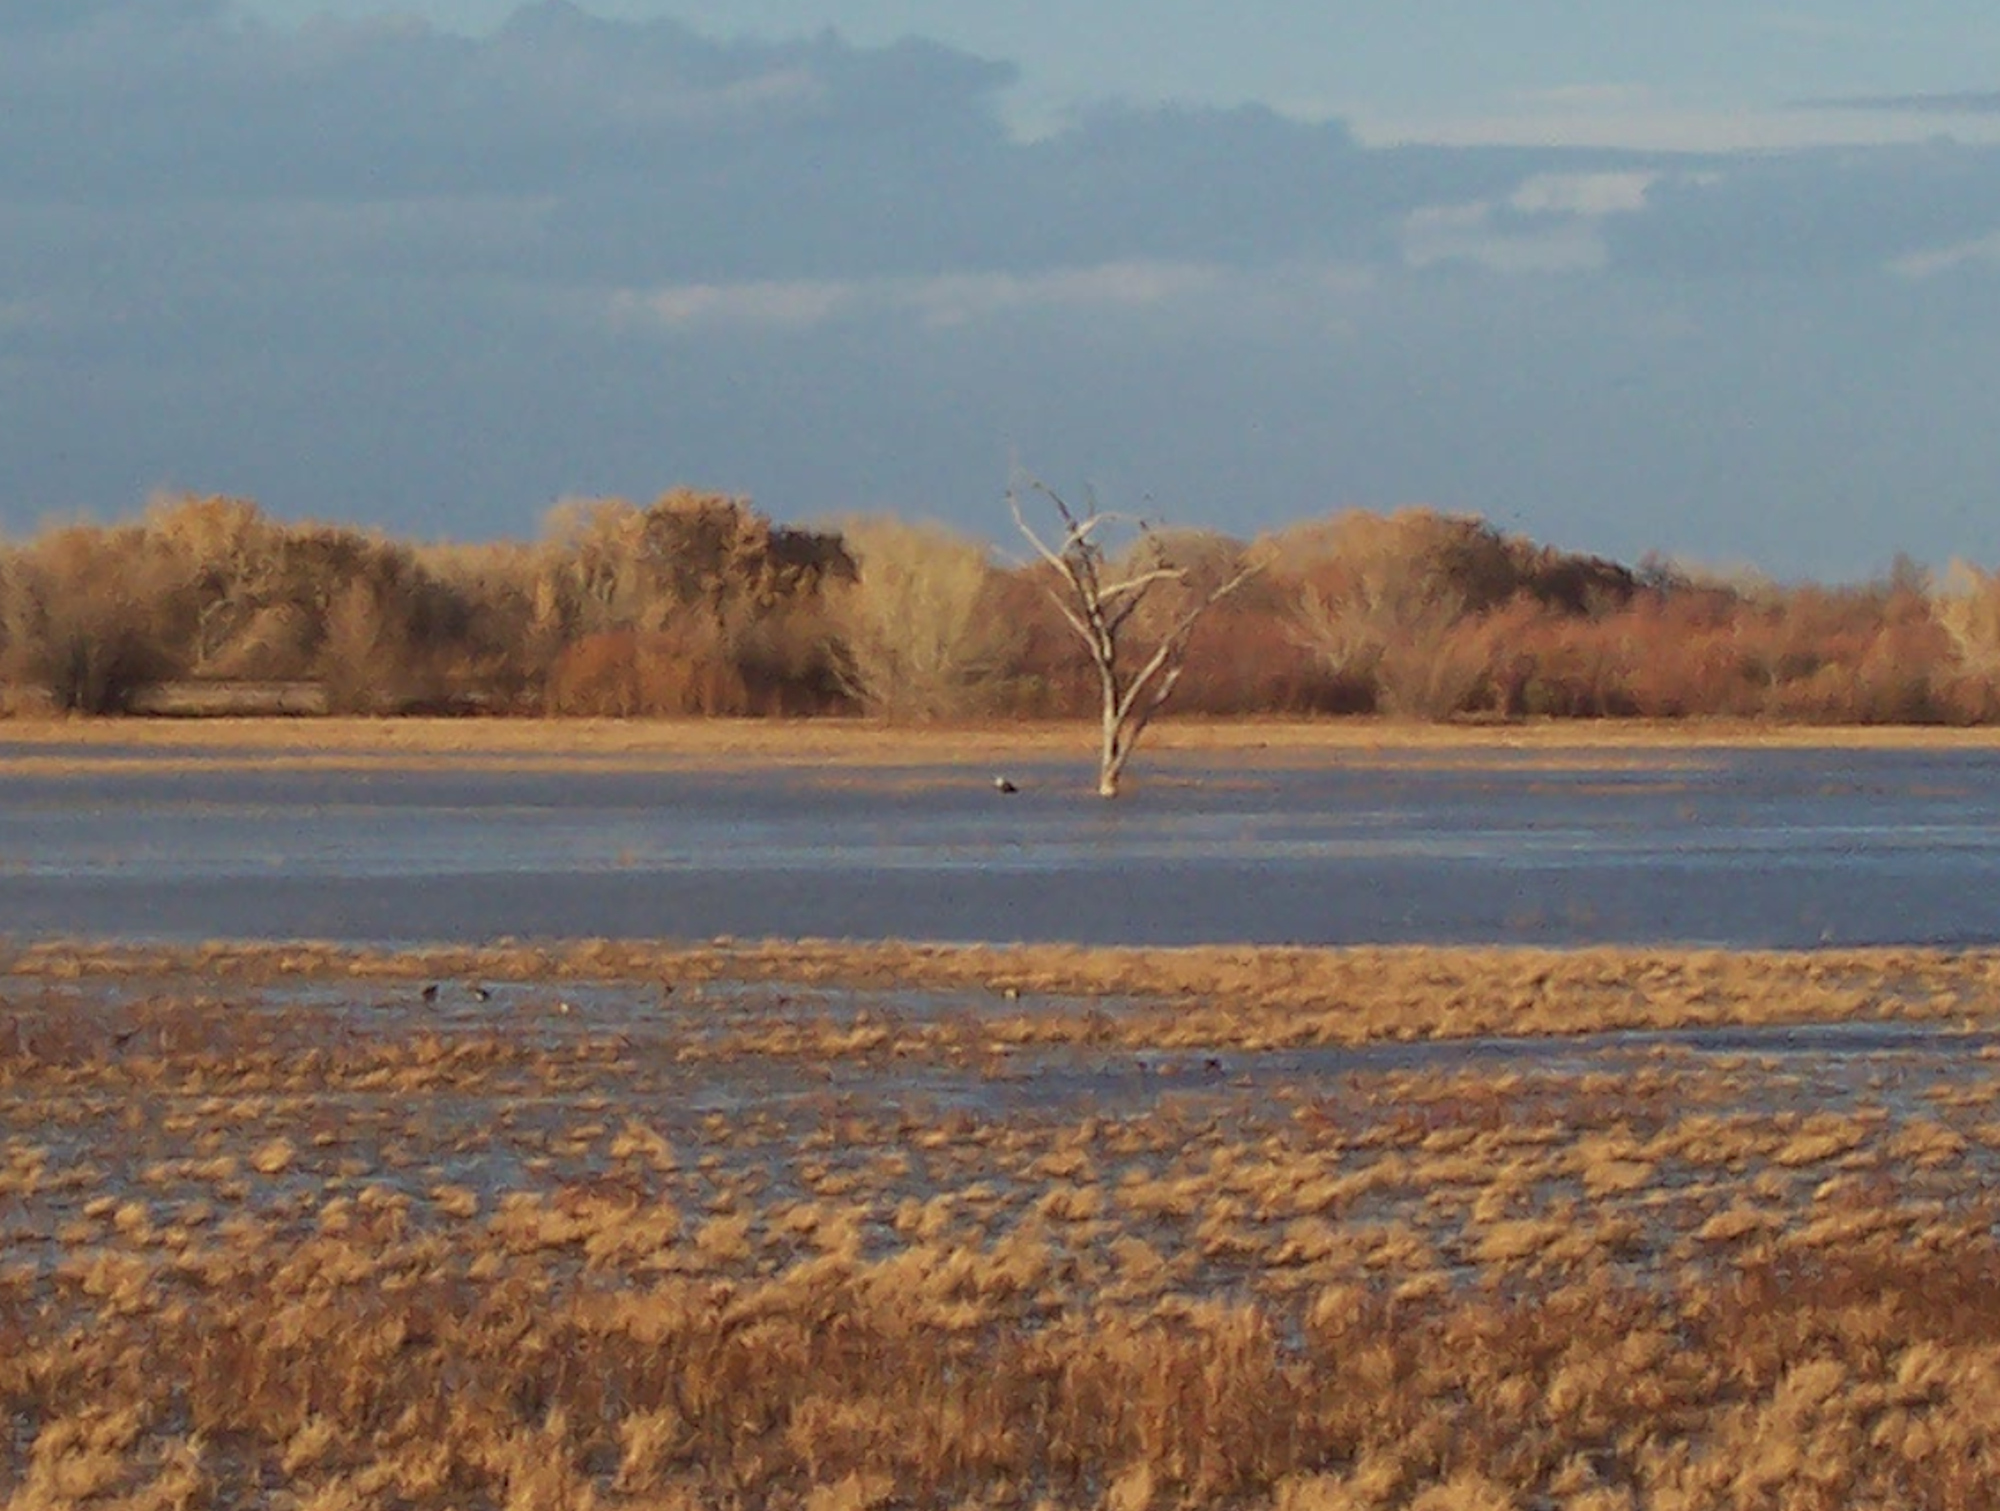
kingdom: Animalia
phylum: Chordata
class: Aves
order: Accipitriformes
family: Accipitridae
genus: Haliaeetus
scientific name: Haliaeetus leucocephalus
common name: Bald eagle
